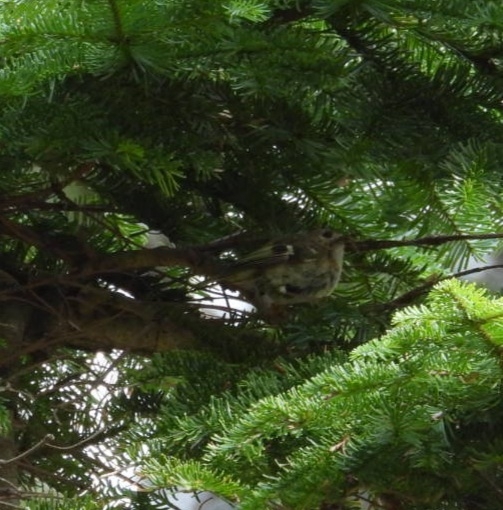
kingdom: Animalia
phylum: Chordata
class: Aves
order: Passeriformes
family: Regulidae
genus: Regulus
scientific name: Regulus regulus
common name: Goldcrest
